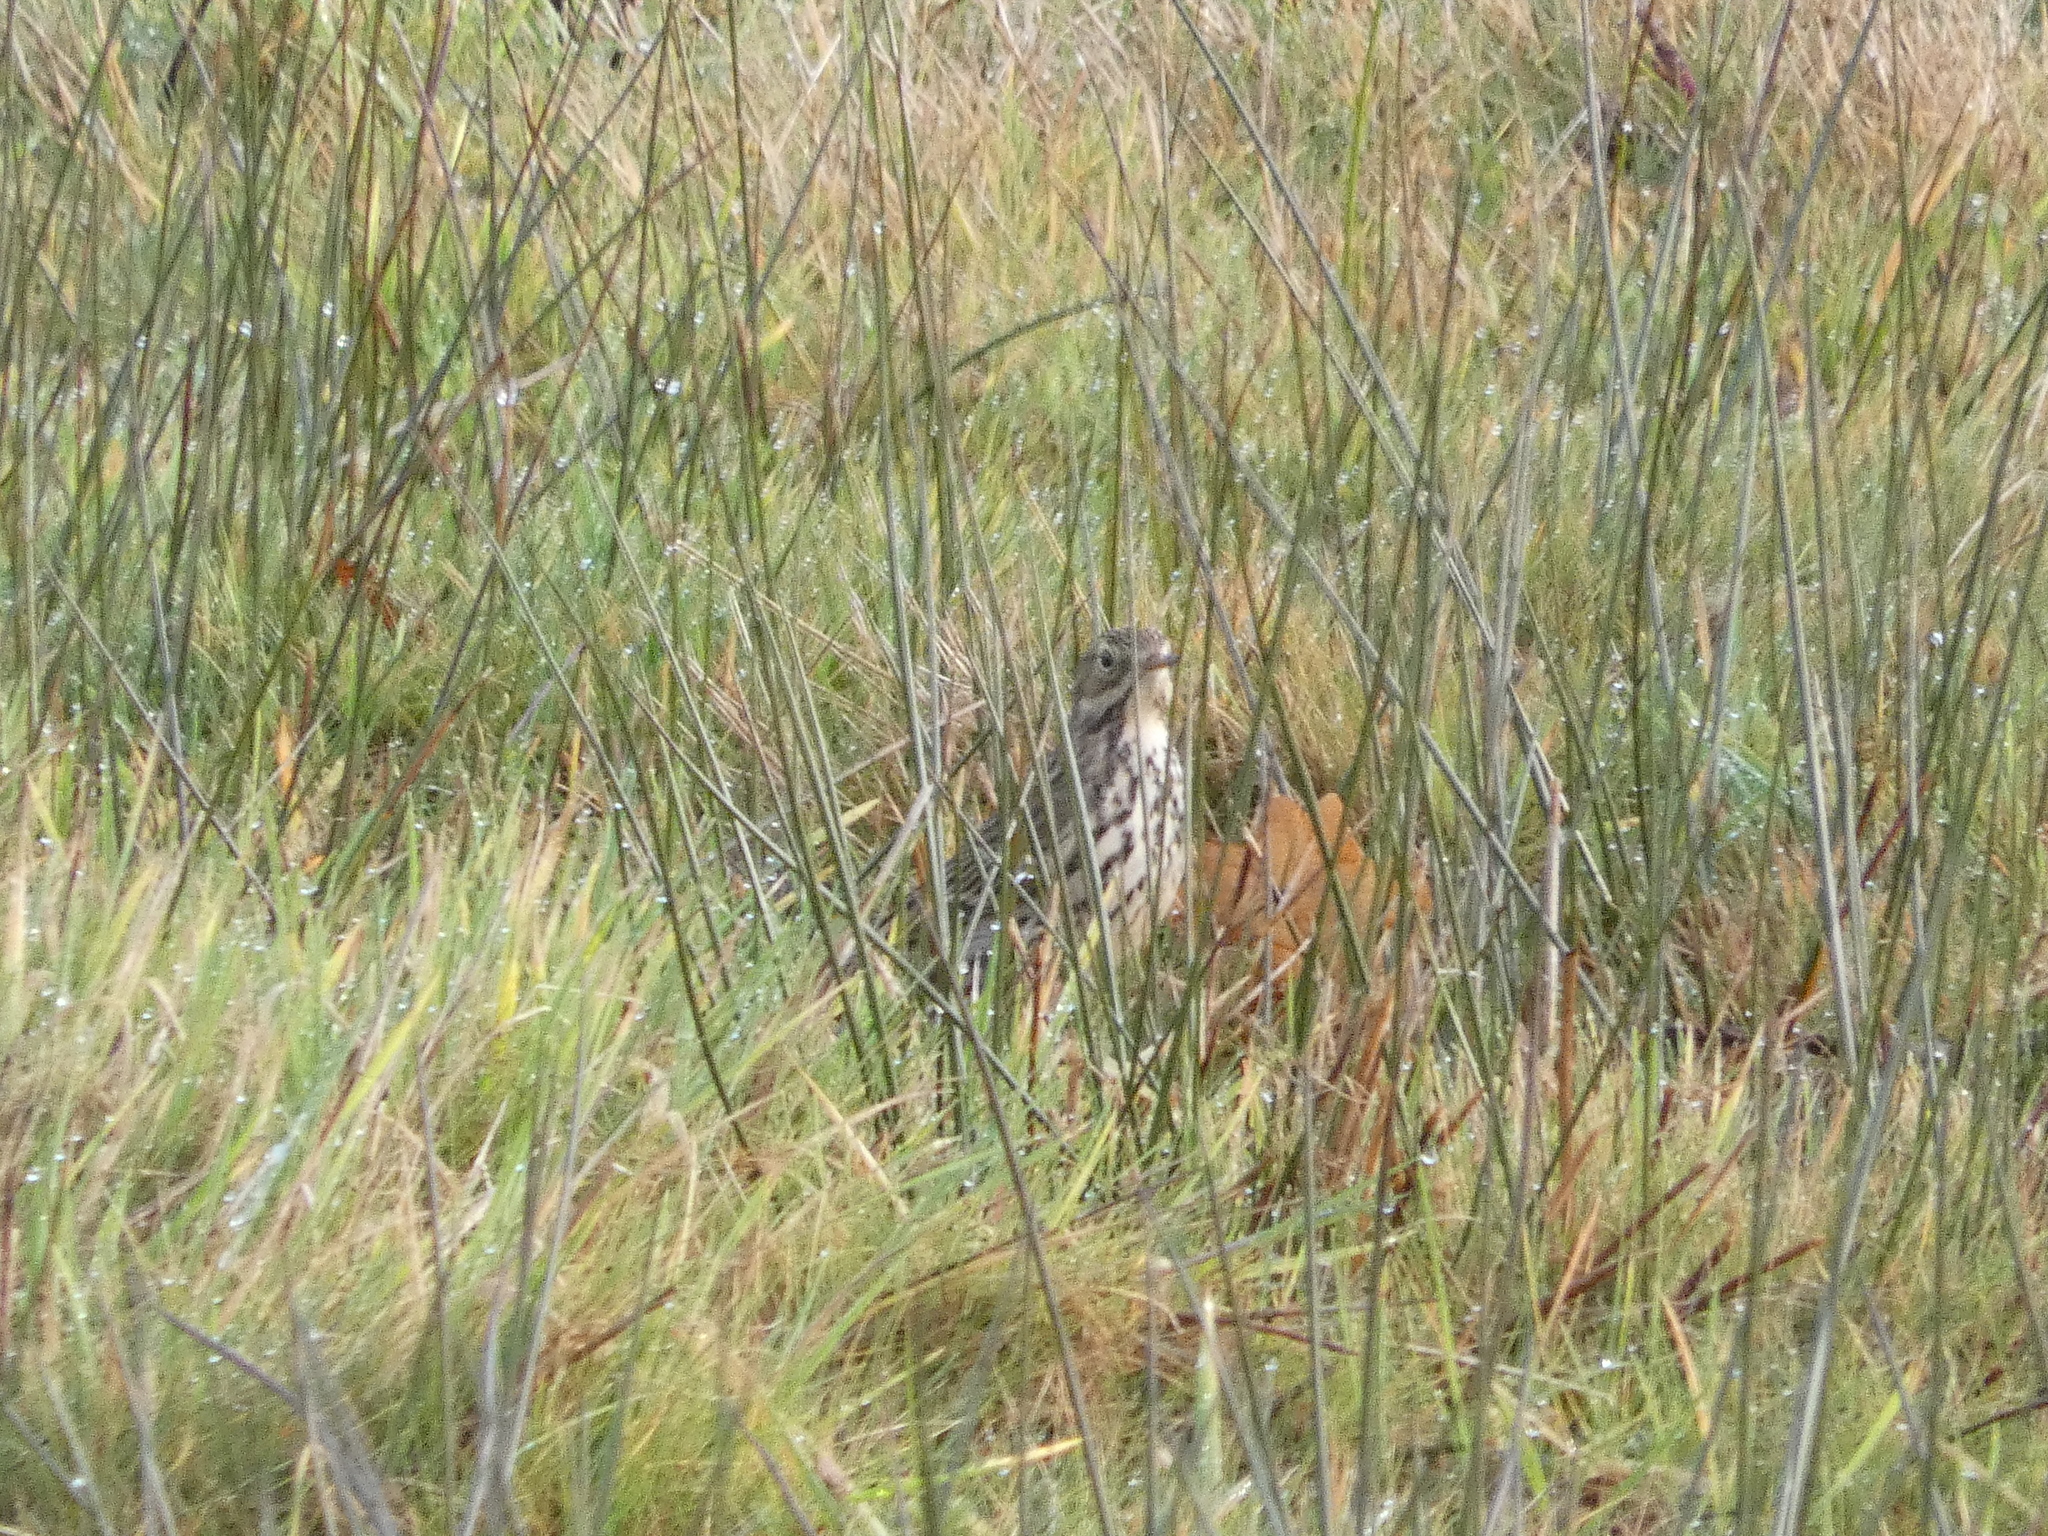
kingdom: Animalia
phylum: Chordata
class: Aves
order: Passeriformes
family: Motacillidae
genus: Anthus
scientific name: Anthus pratensis
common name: Meadow pipit
